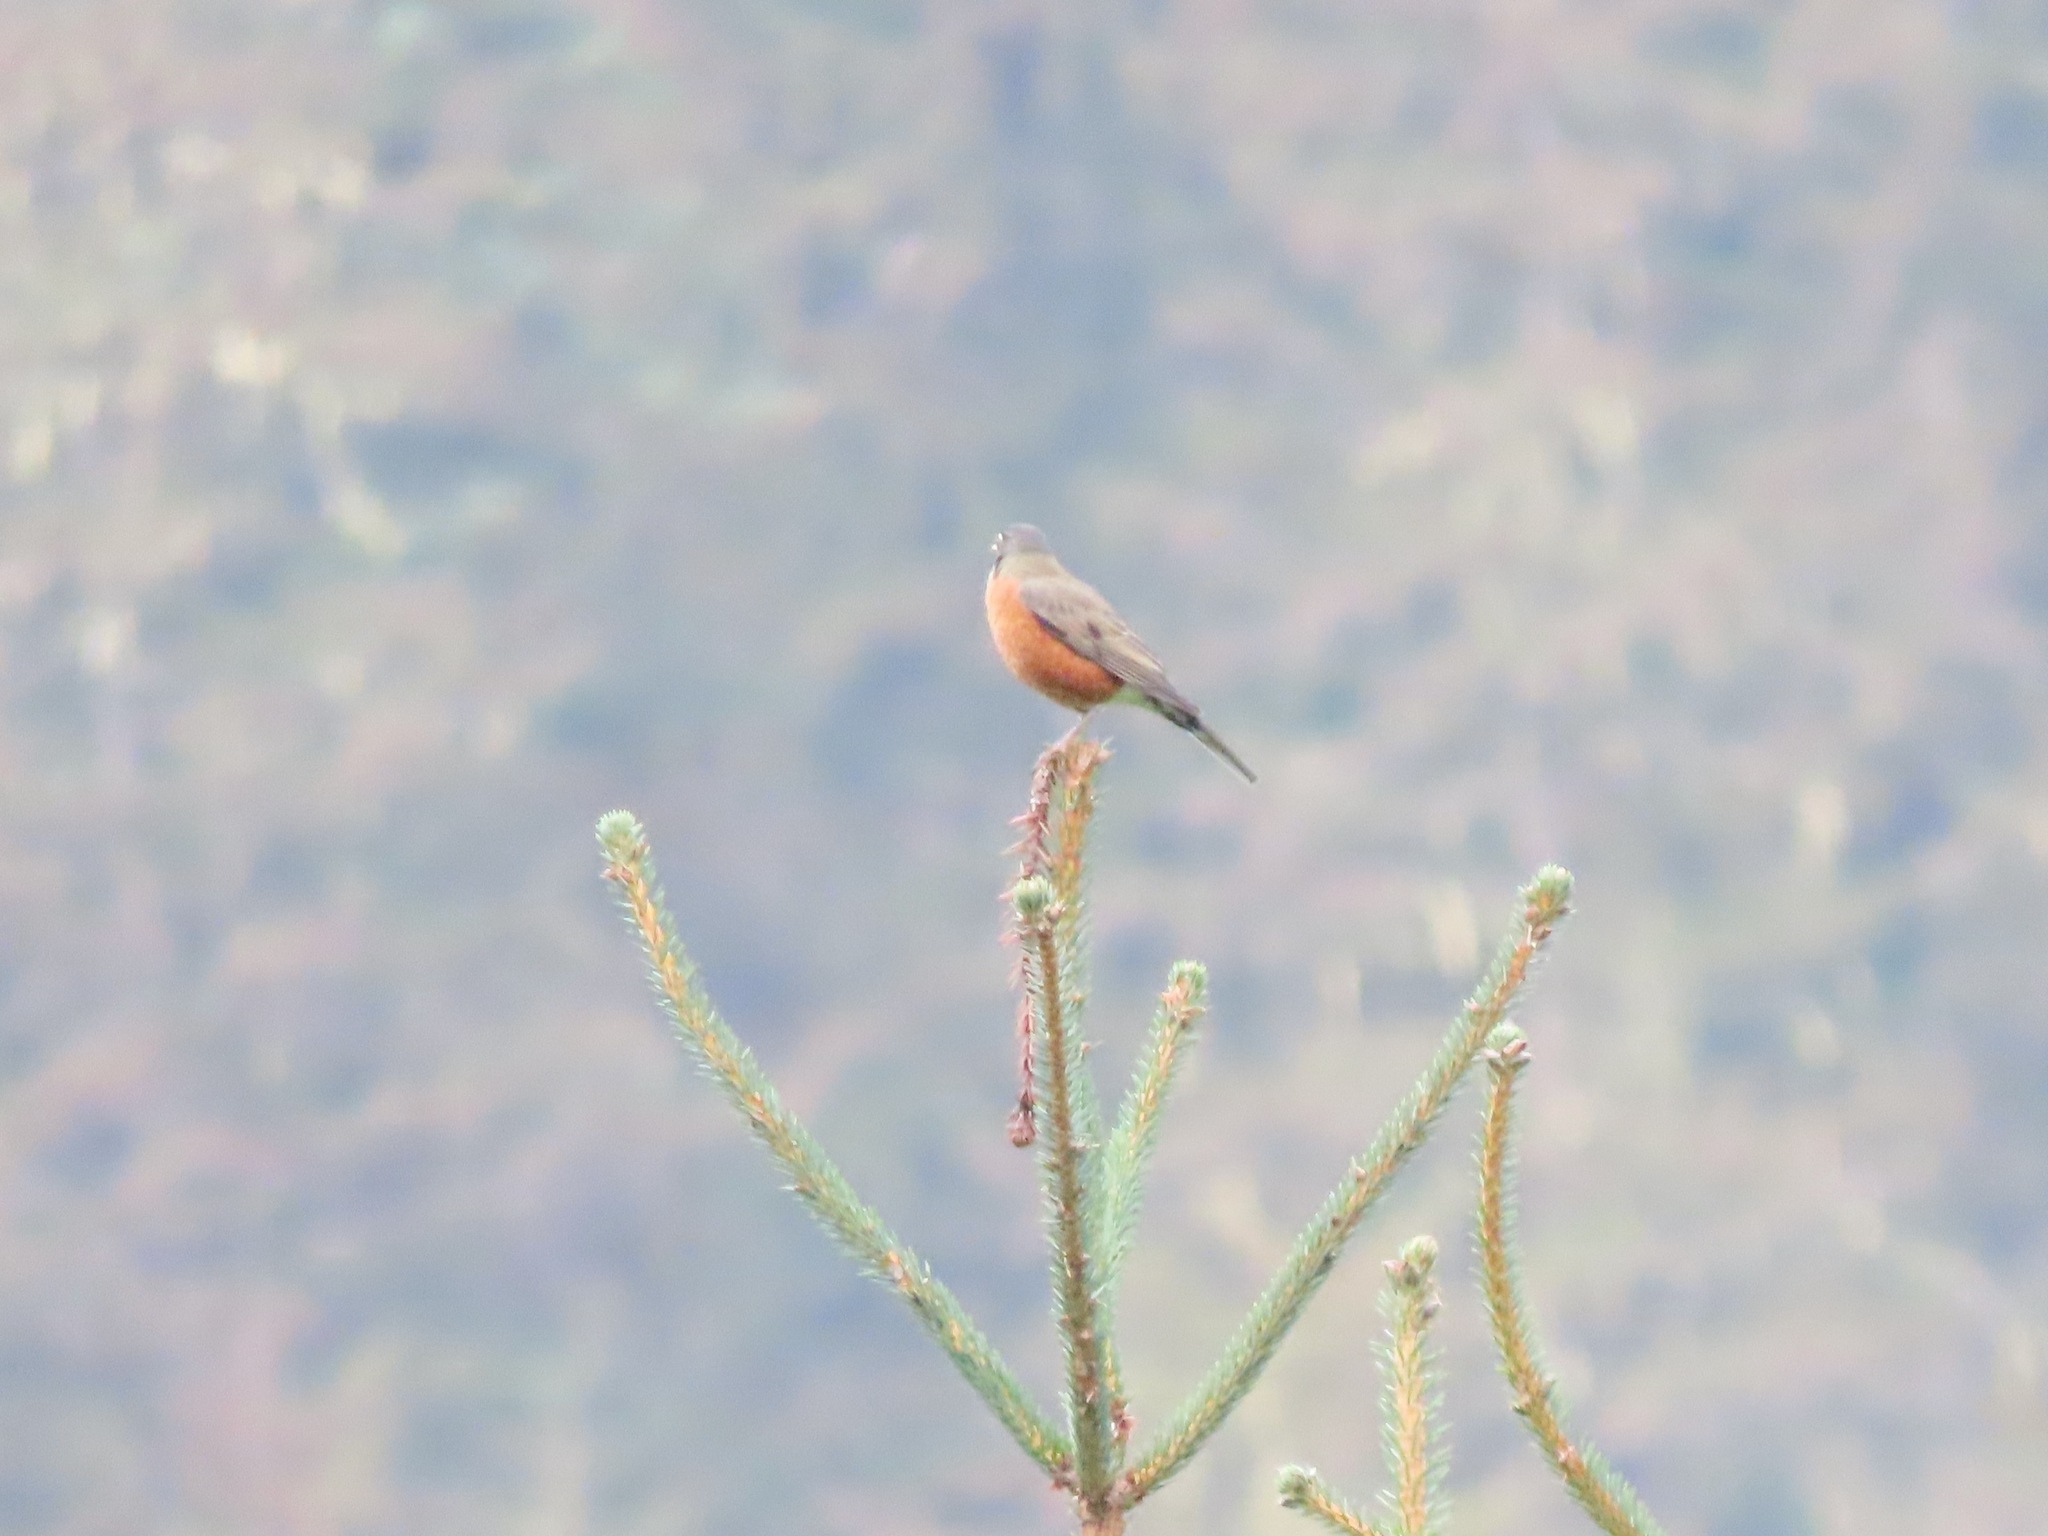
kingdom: Animalia
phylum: Chordata
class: Aves
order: Passeriformes
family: Turdidae
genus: Turdus
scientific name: Turdus migratorius
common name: American robin
